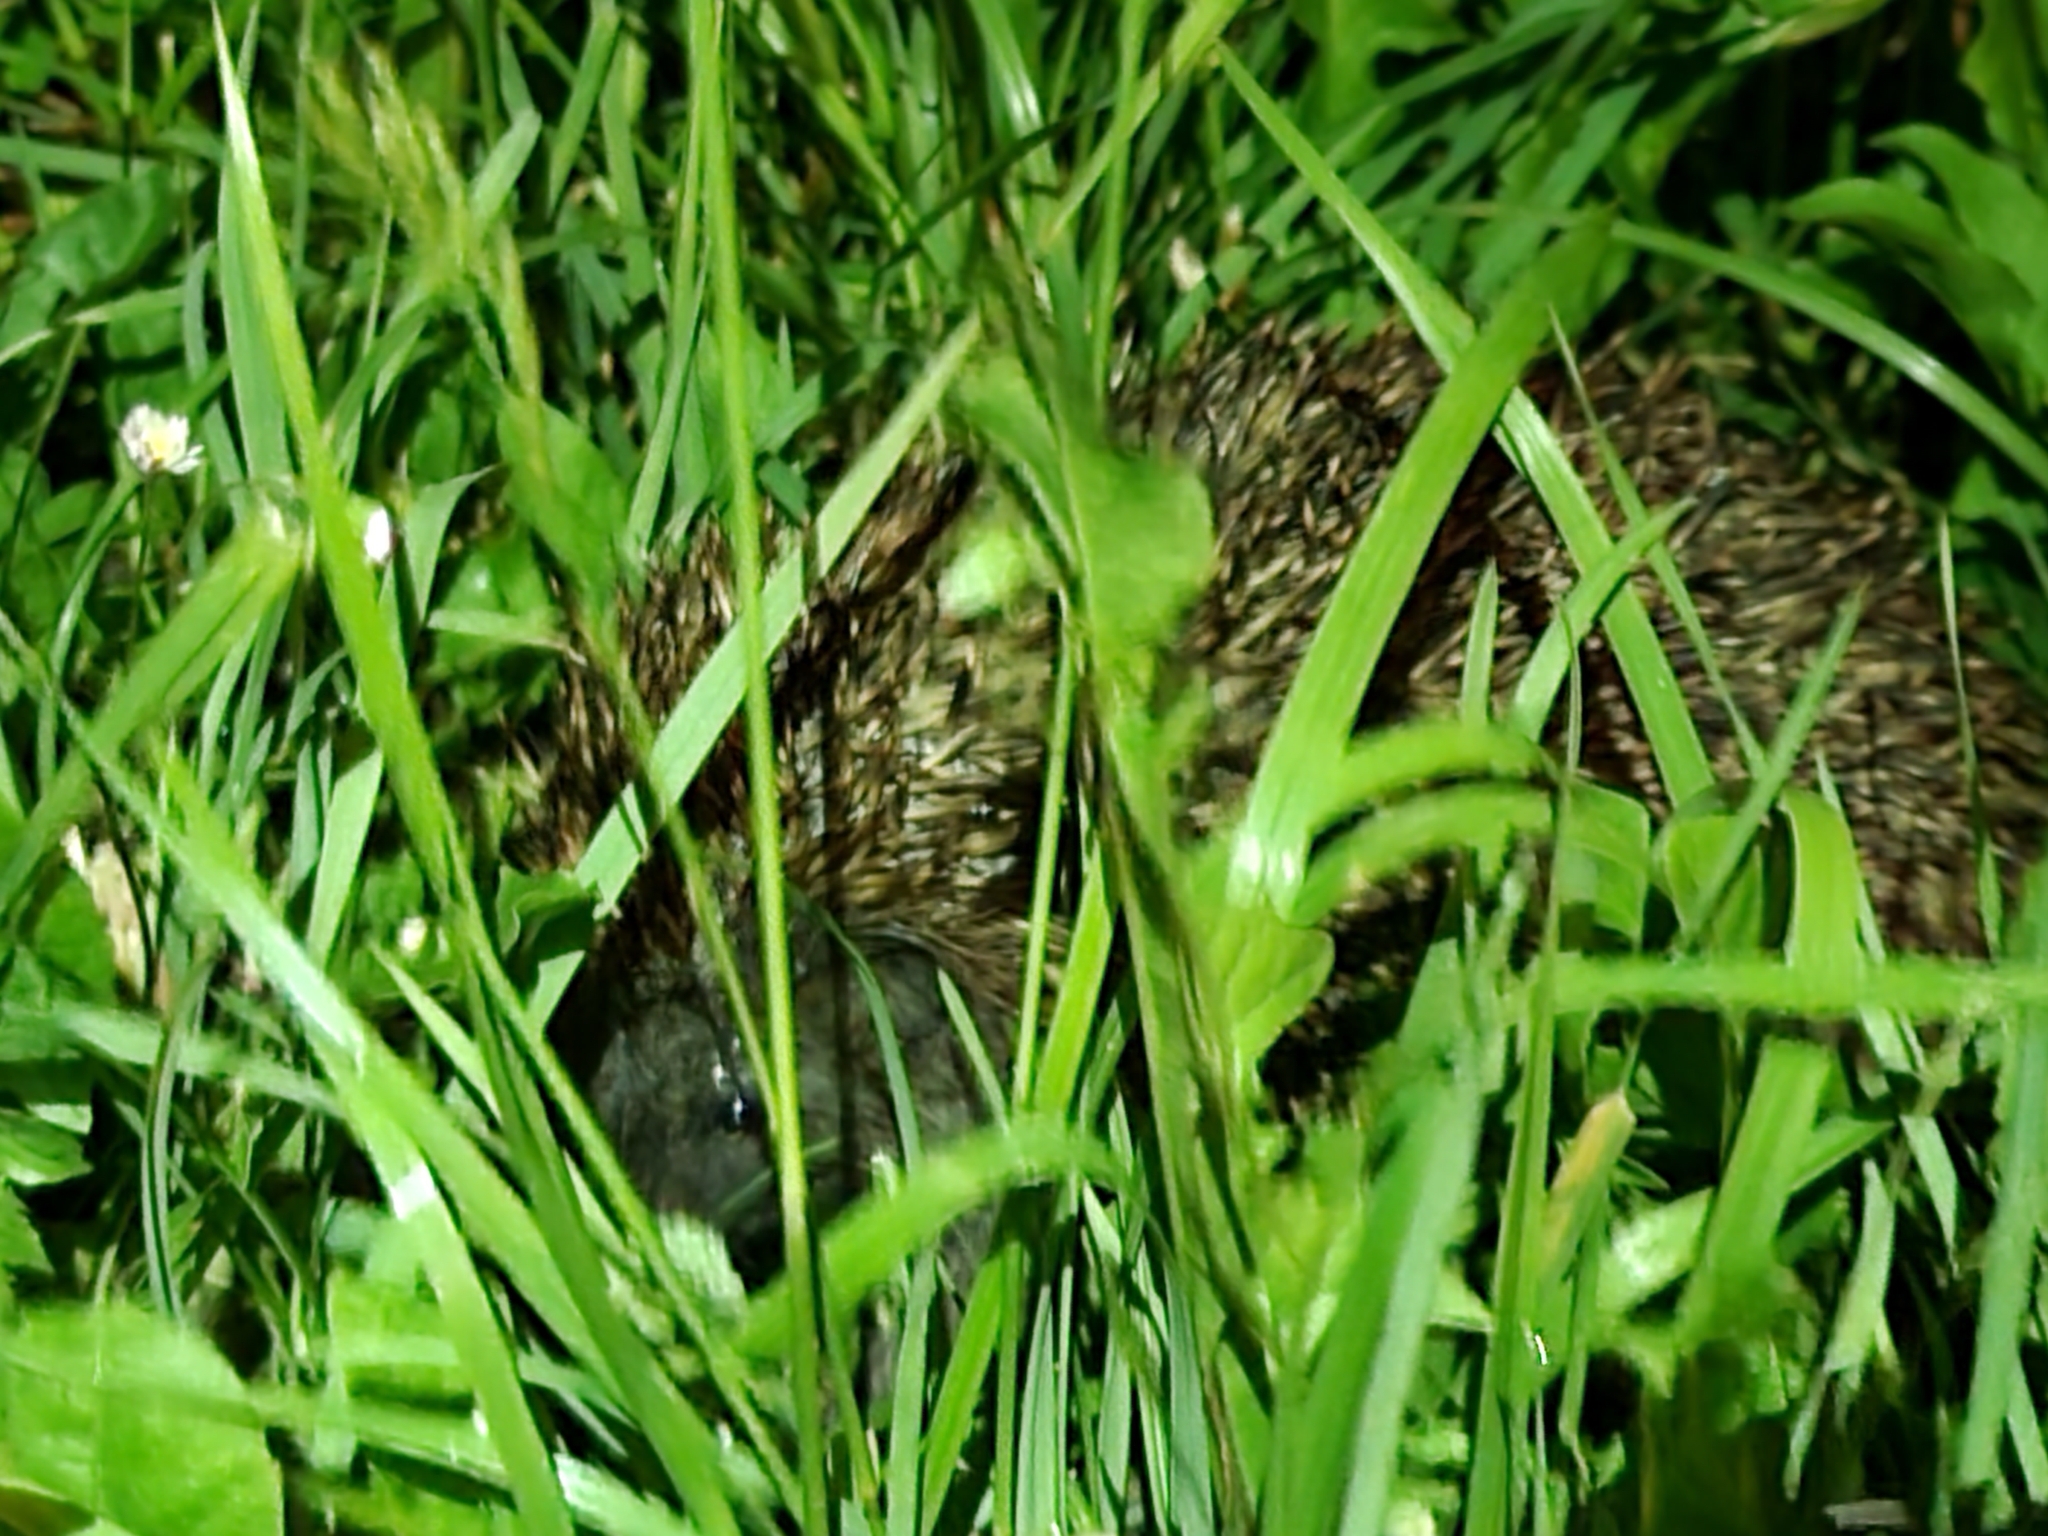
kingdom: Animalia
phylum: Chordata
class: Mammalia
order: Erinaceomorpha
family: Erinaceidae
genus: Erinaceus
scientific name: Erinaceus europaeus
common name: West european hedgehog
